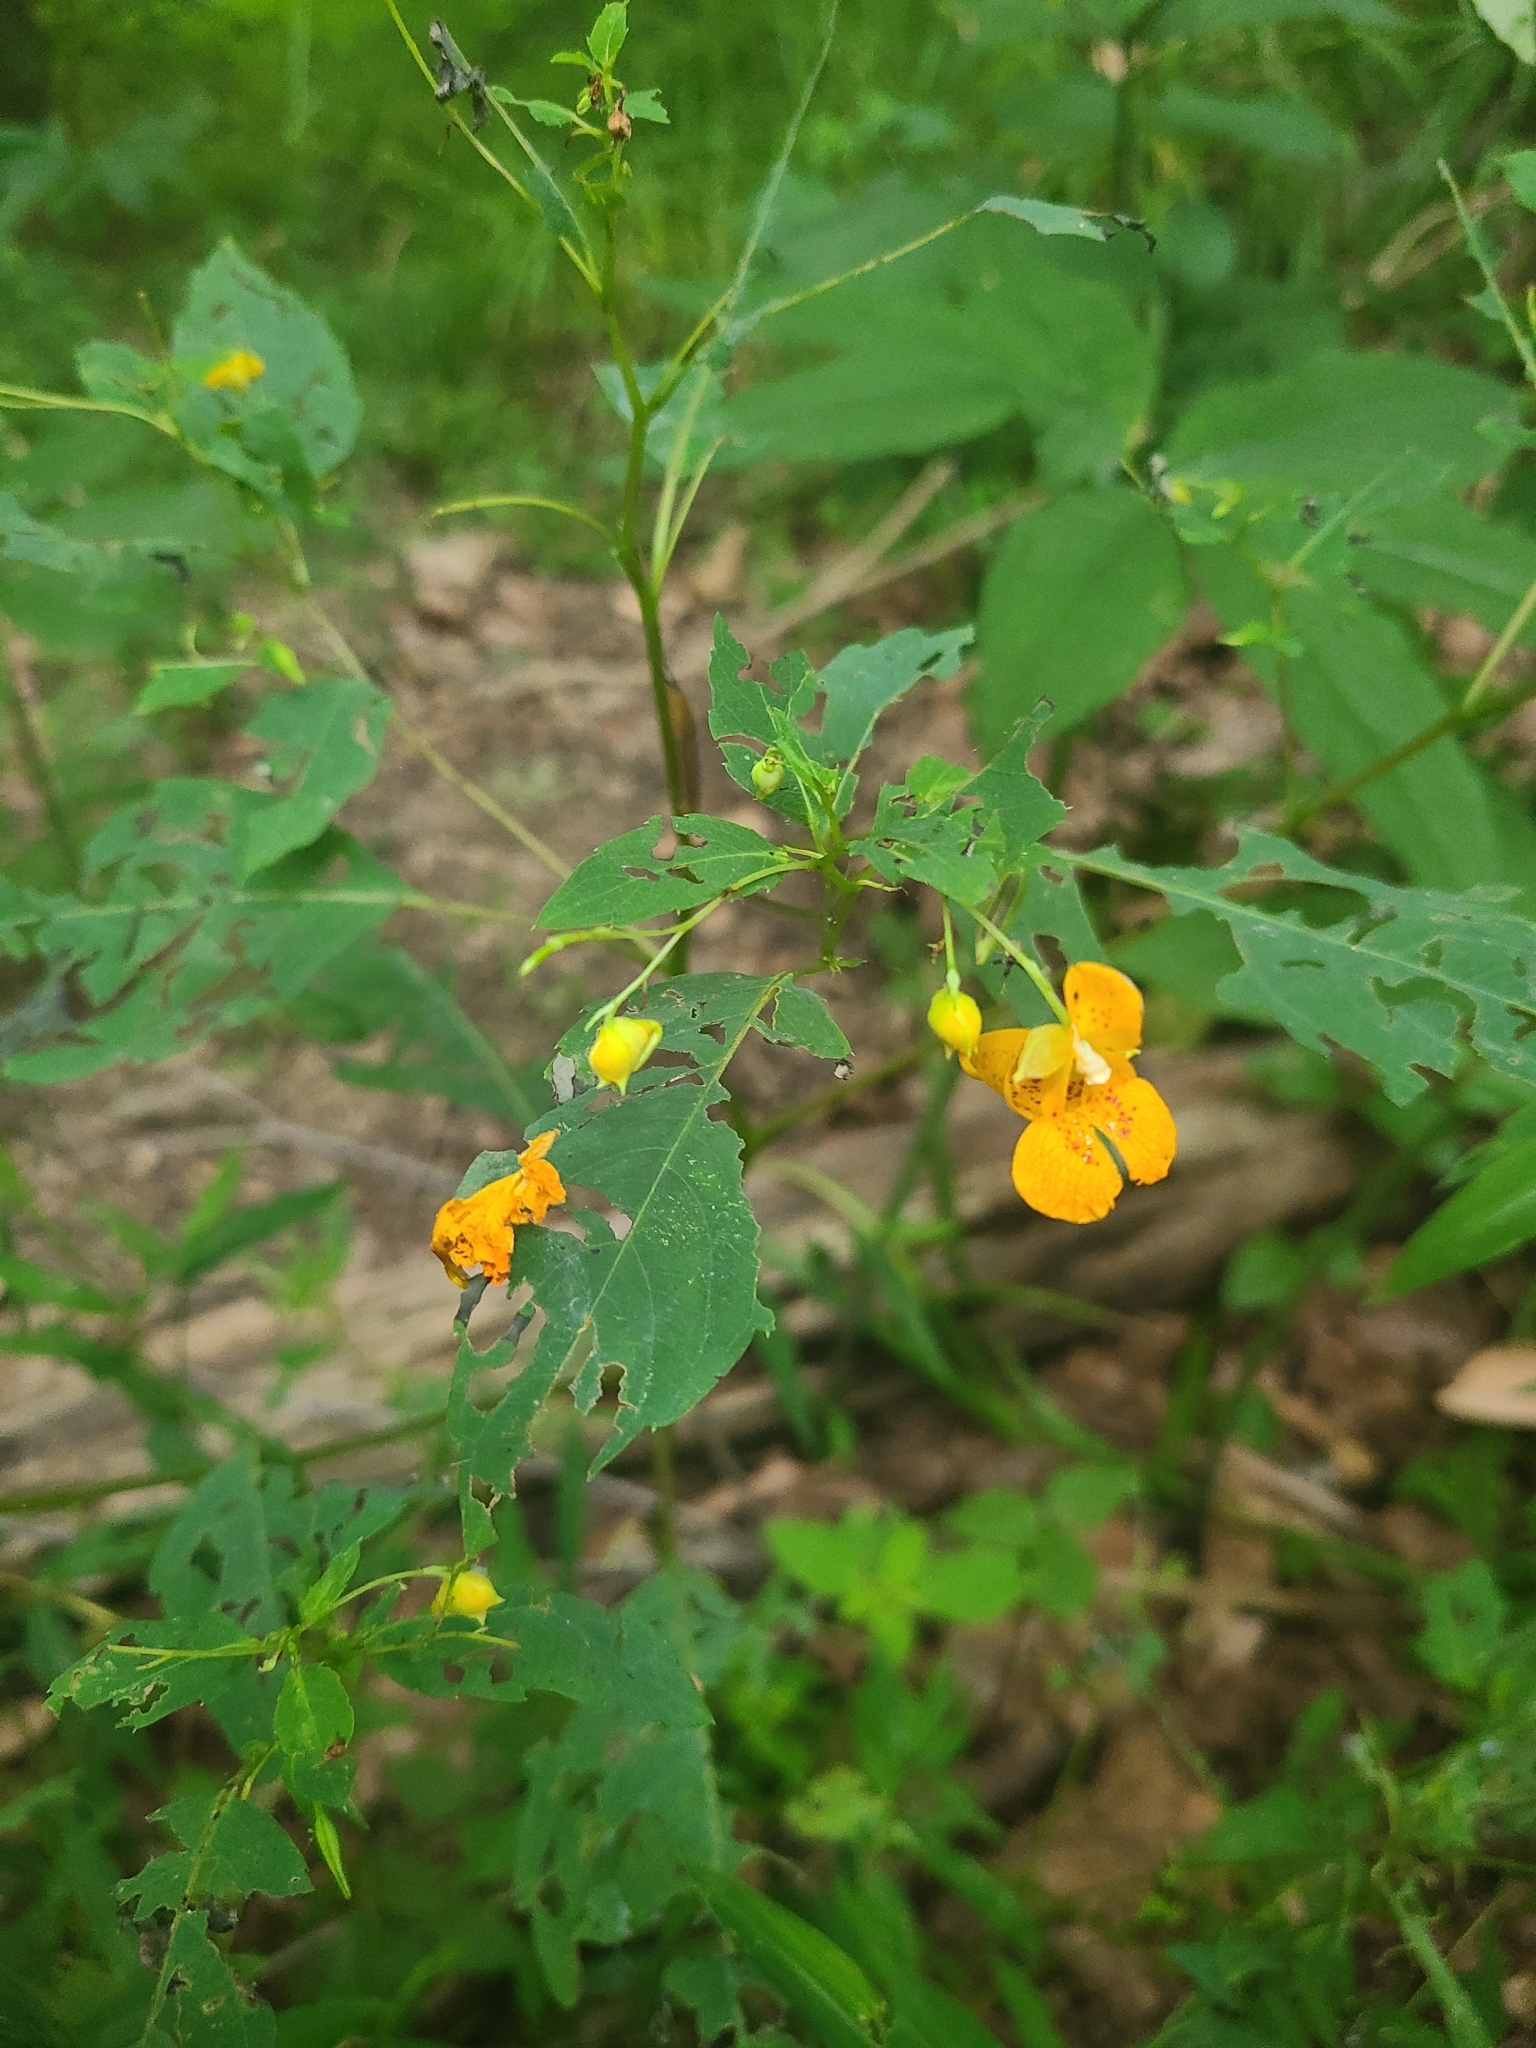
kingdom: Plantae
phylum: Tracheophyta
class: Magnoliopsida
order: Ericales
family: Balsaminaceae
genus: Impatiens
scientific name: Impatiens capensis
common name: Orange balsam
